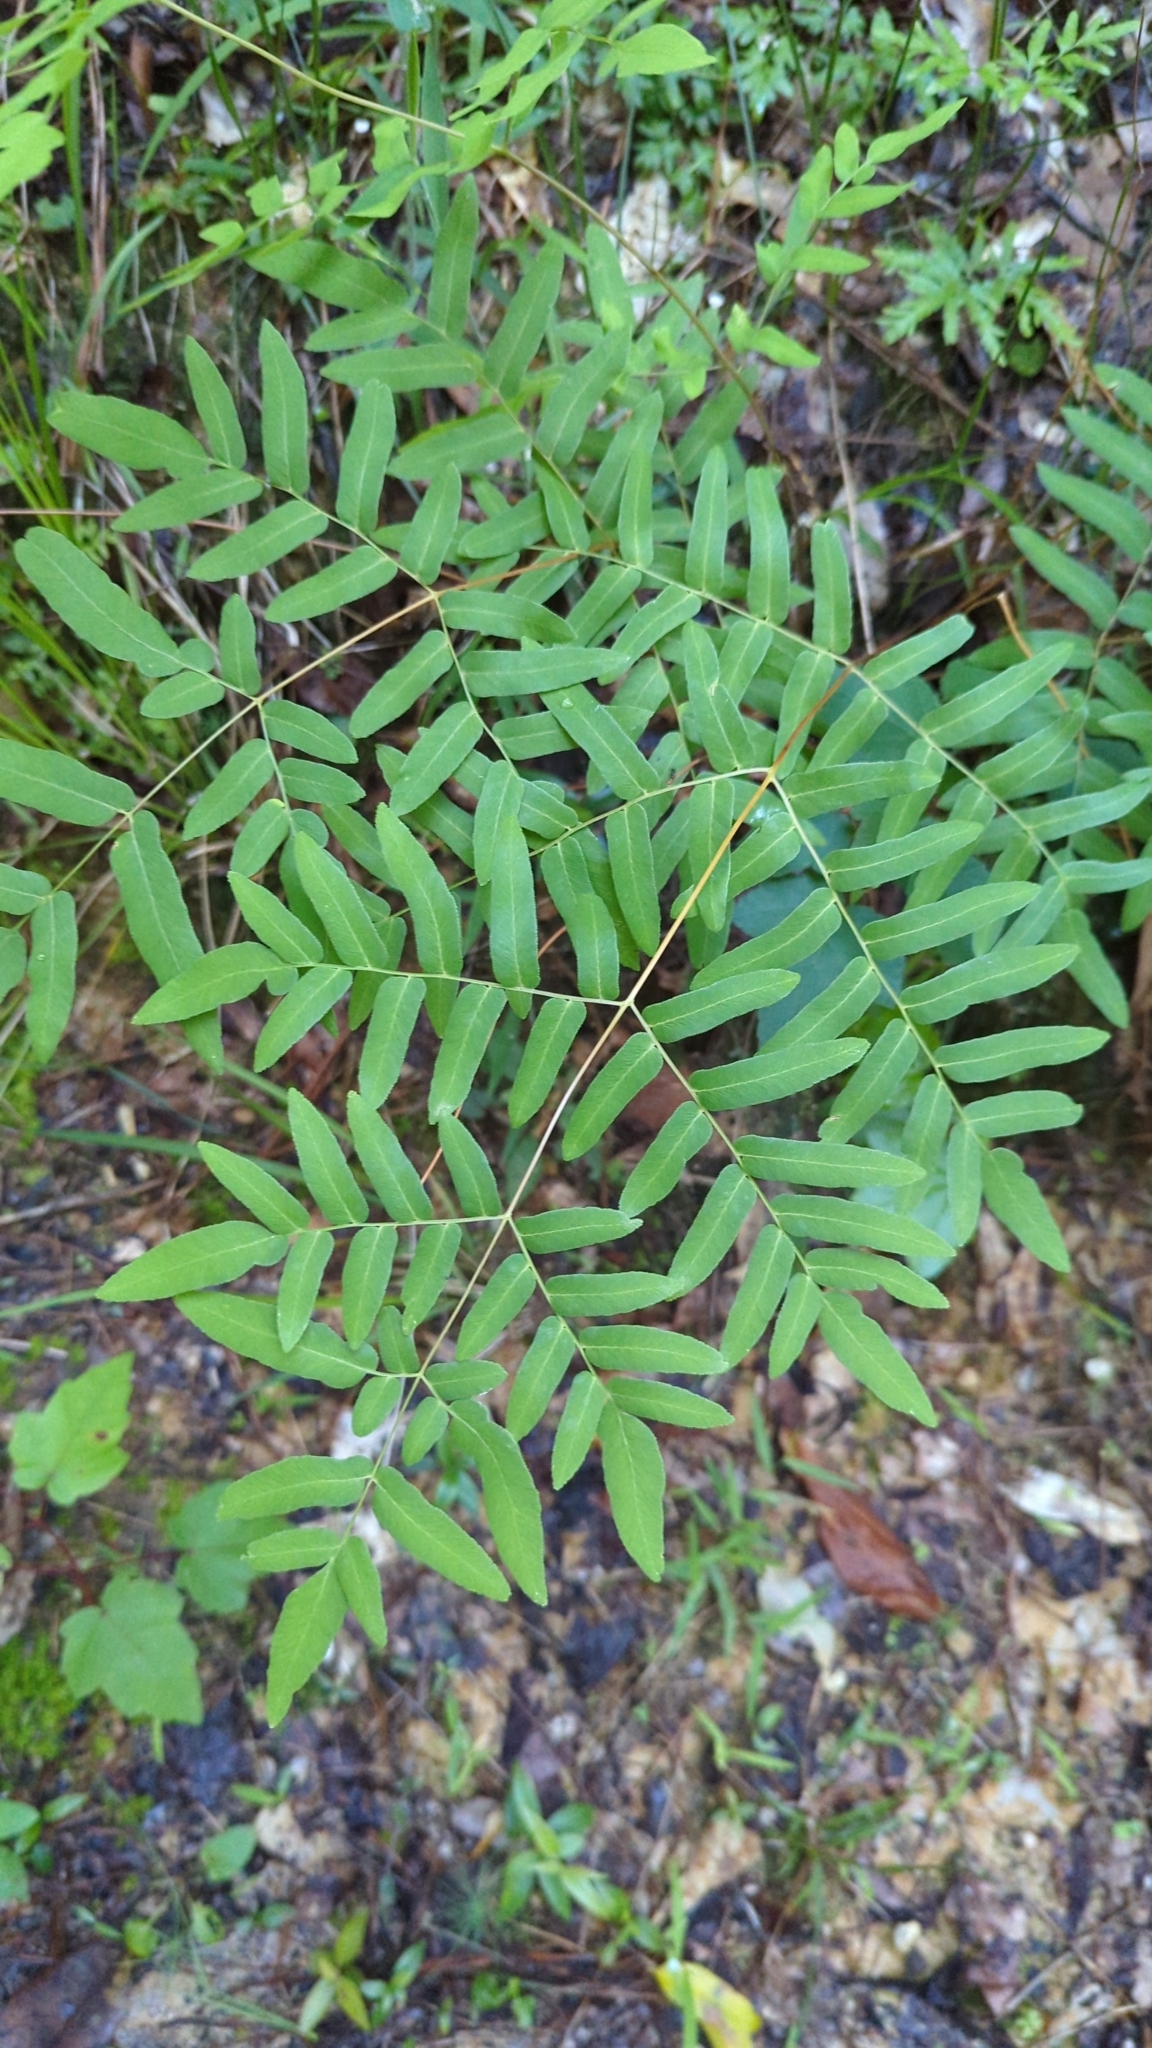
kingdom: Plantae
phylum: Tracheophyta
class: Polypodiopsida
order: Osmundales
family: Osmundaceae
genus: Osmunda
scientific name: Osmunda spectabilis
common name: American royal fern
